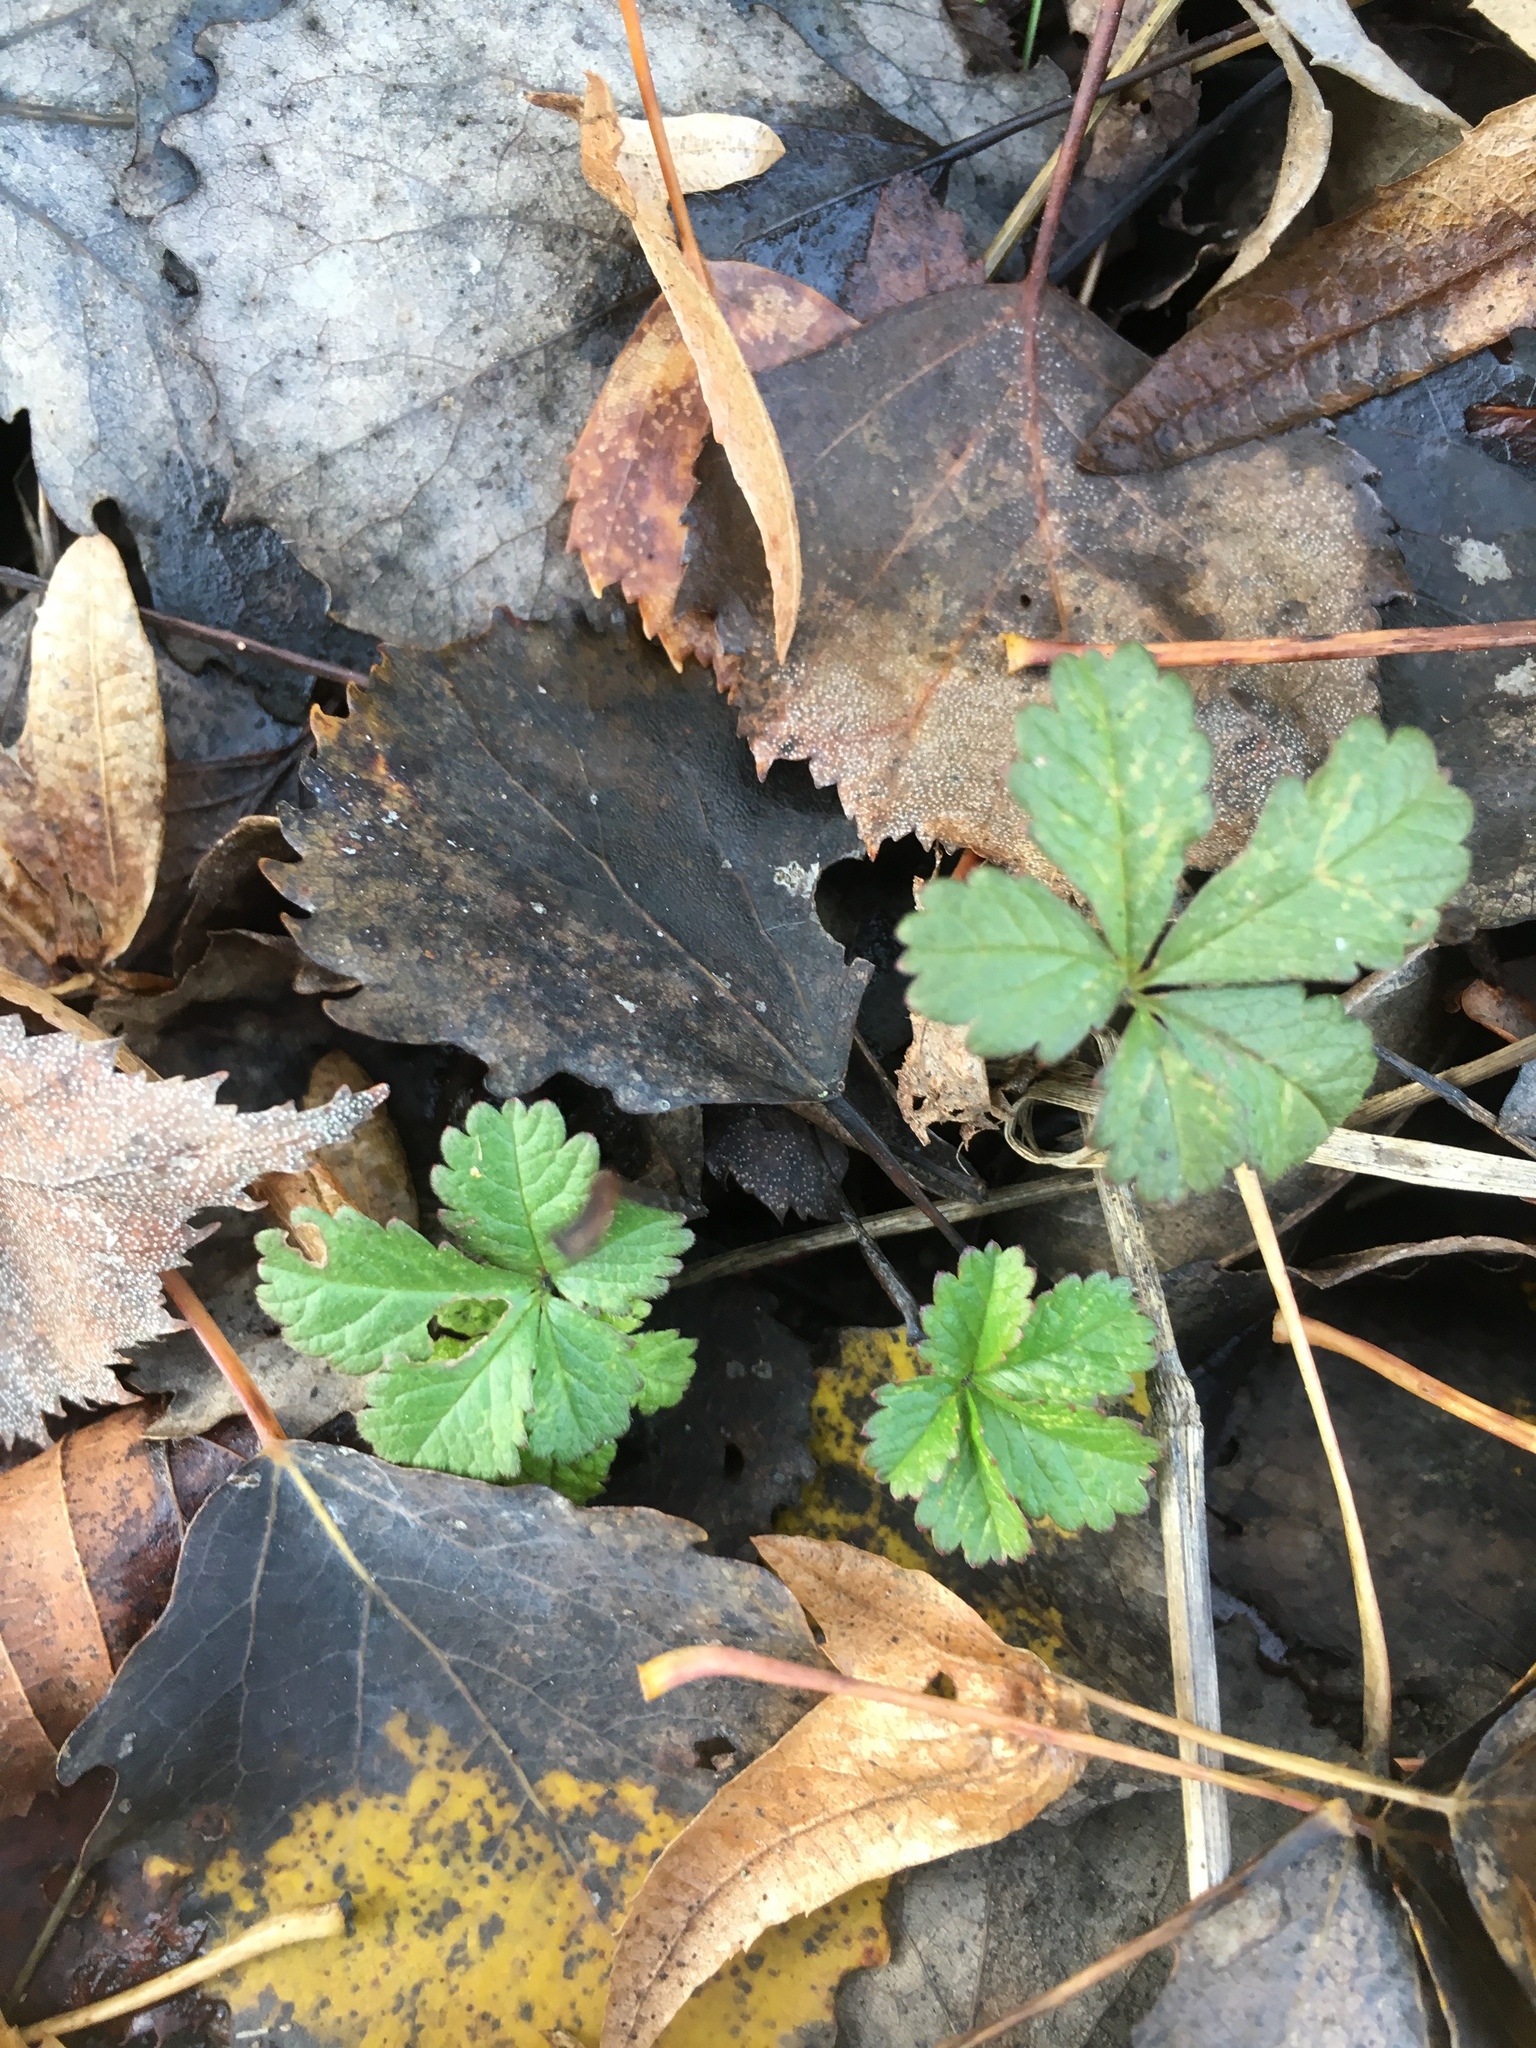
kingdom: Plantae
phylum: Tracheophyta
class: Magnoliopsida
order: Rosales
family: Rosaceae
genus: Potentilla
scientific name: Potentilla reptans
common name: Creeping cinquefoil
